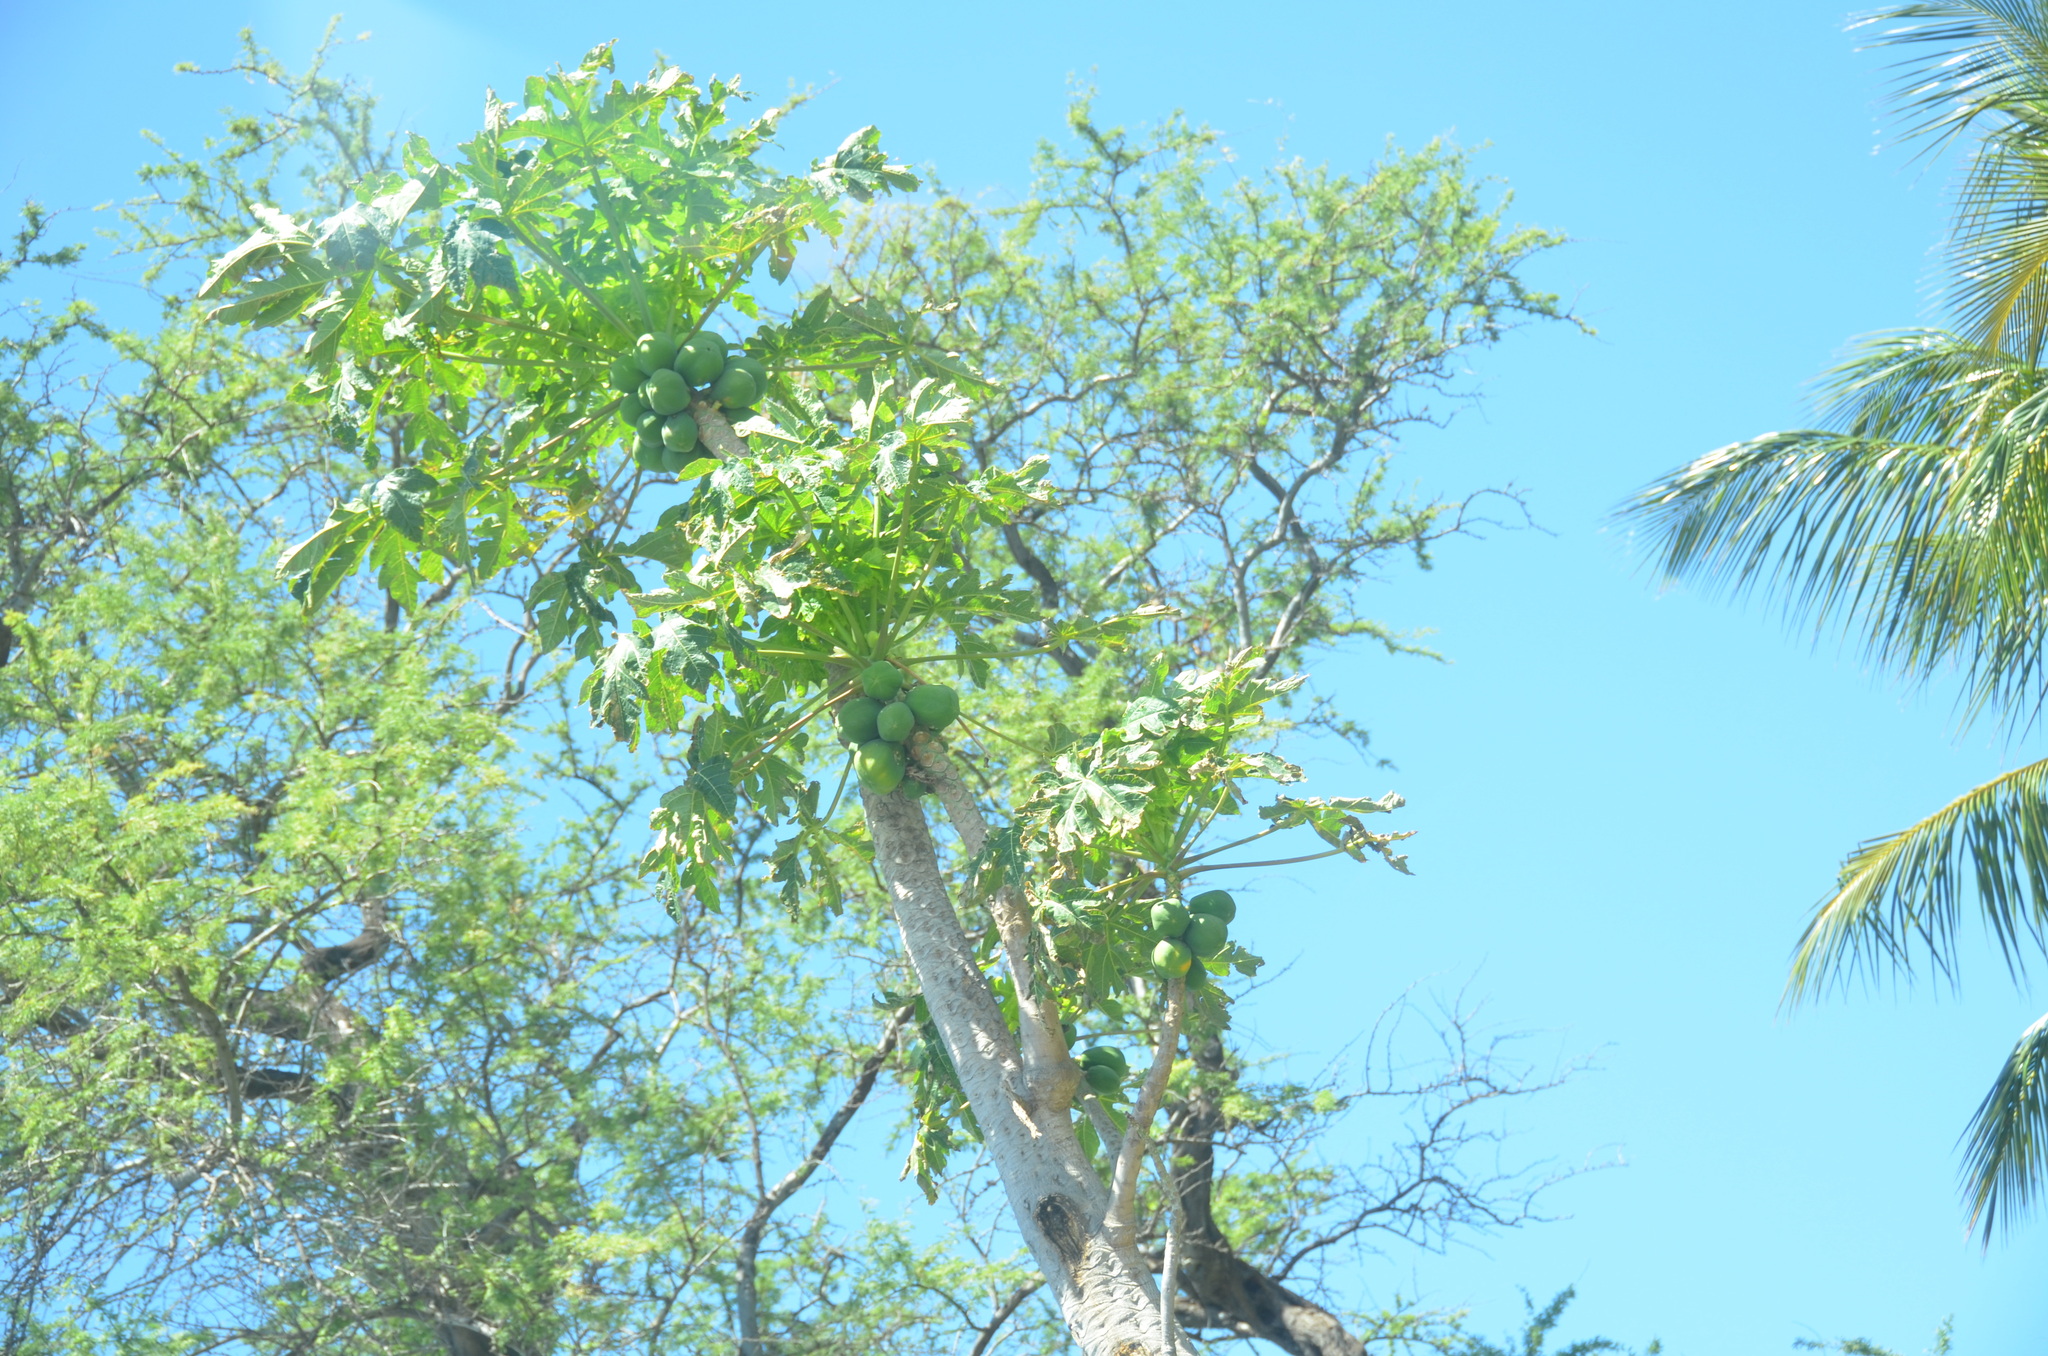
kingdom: Plantae
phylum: Tracheophyta
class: Magnoliopsida
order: Brassicales
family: Caricaceae
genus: Carica
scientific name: Carica papaya
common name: Papaya
